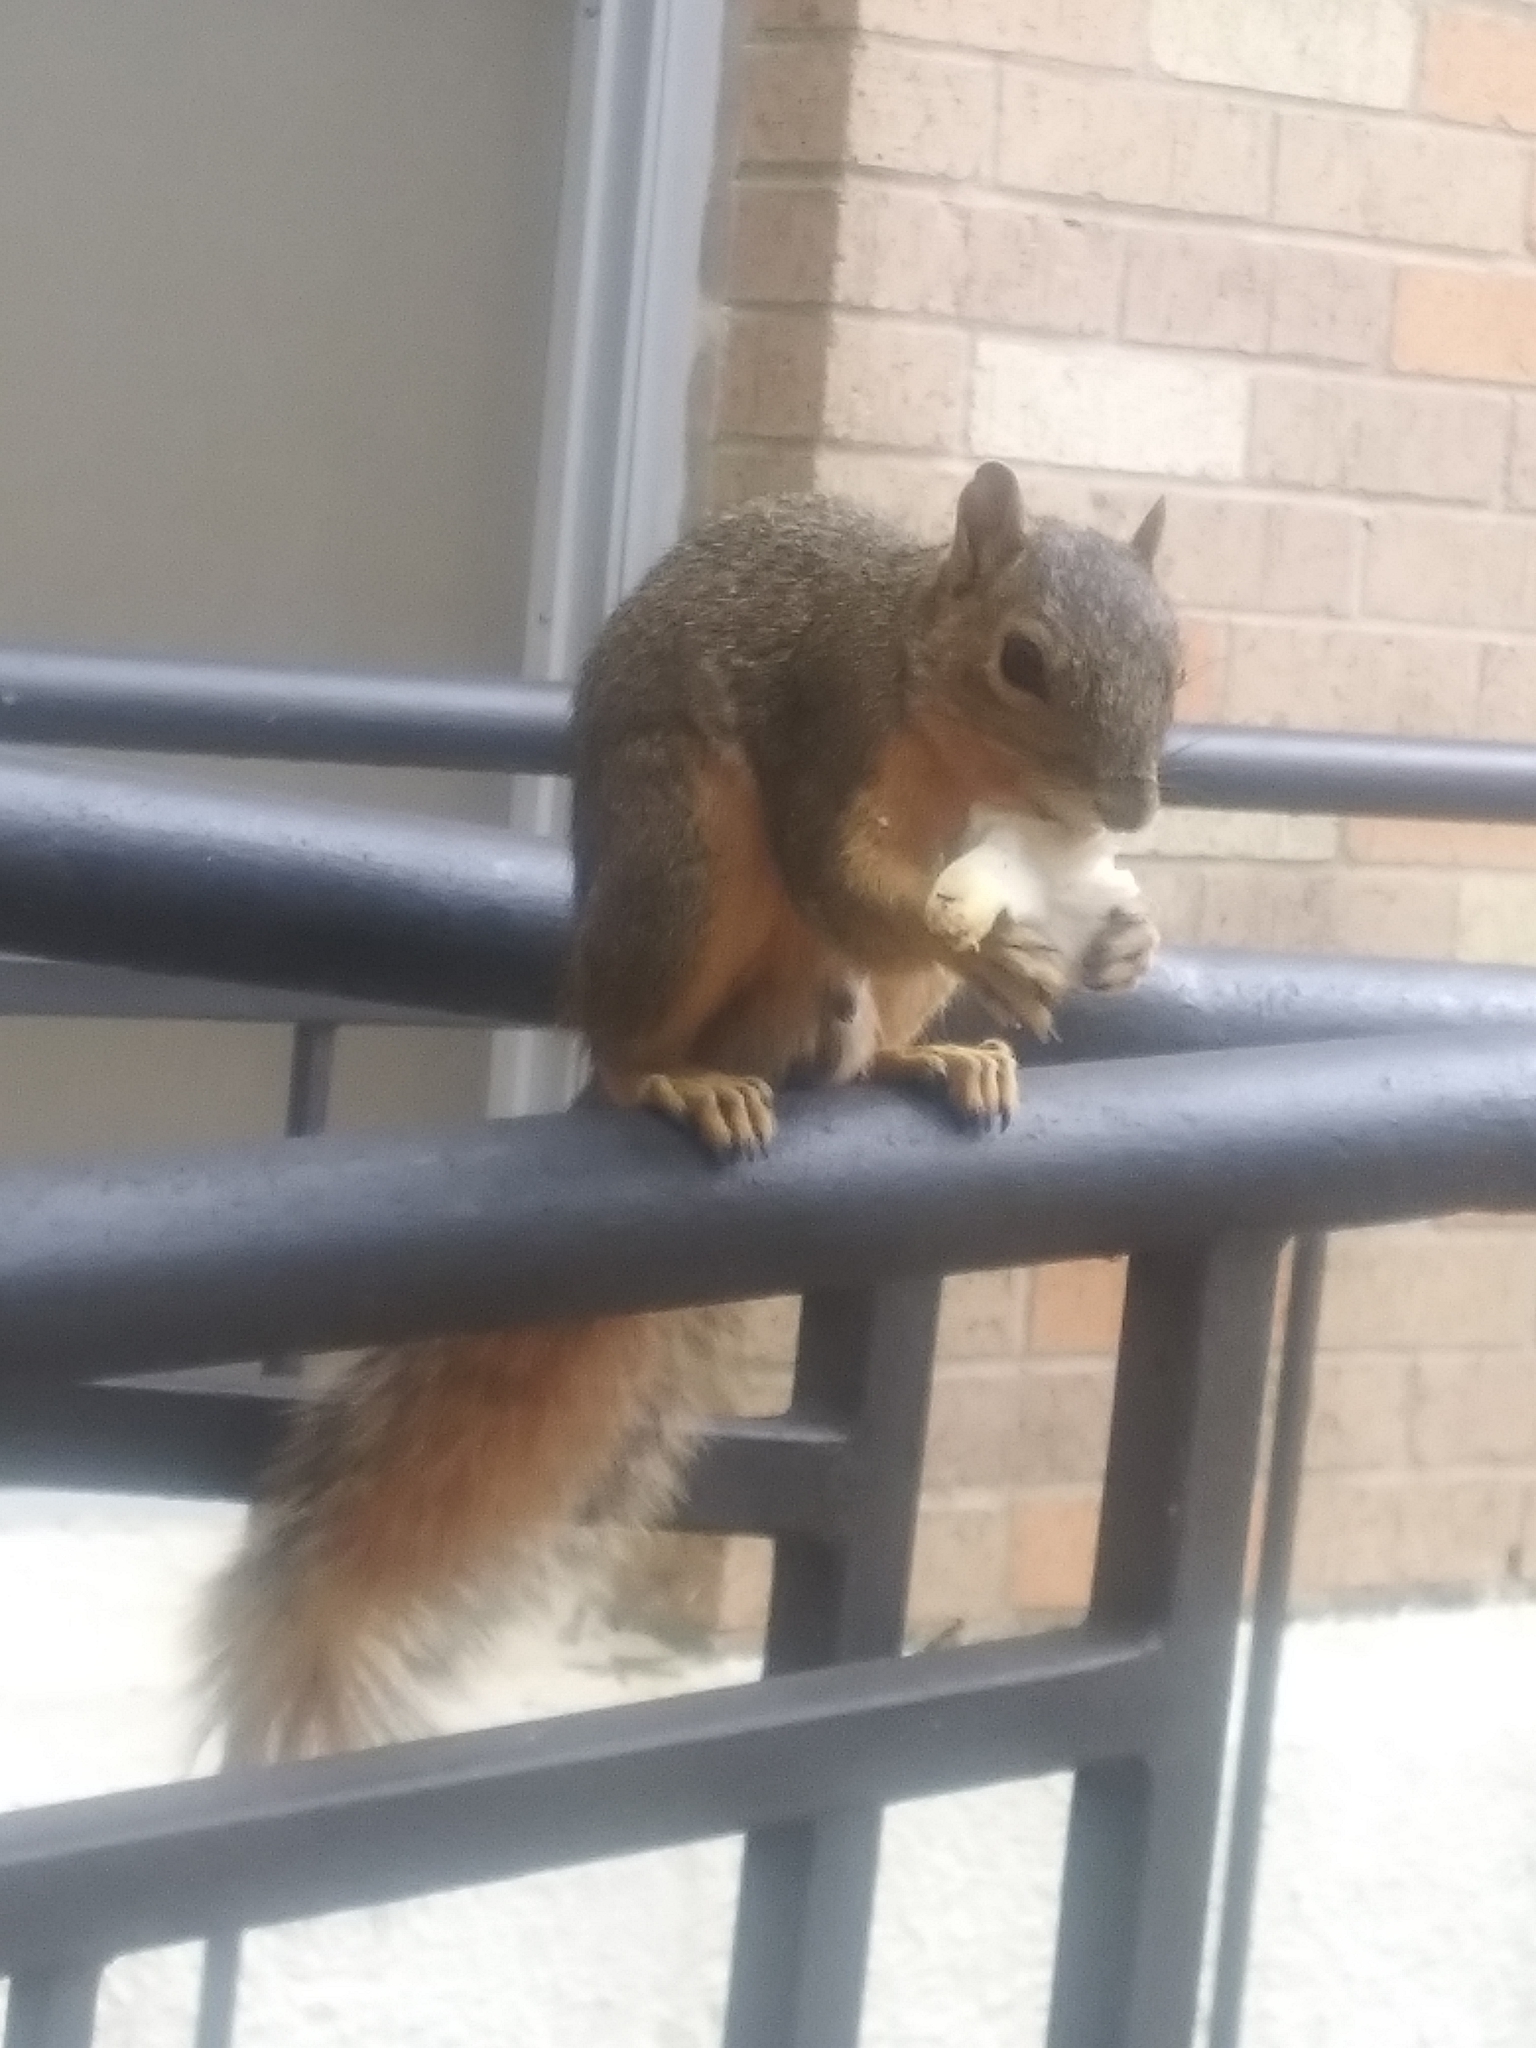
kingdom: Animalia
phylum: Chordata
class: Mammalia
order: Rodentia
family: Sciuridae
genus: Sciurus
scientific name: Sciurus niger
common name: Fox squirrel
